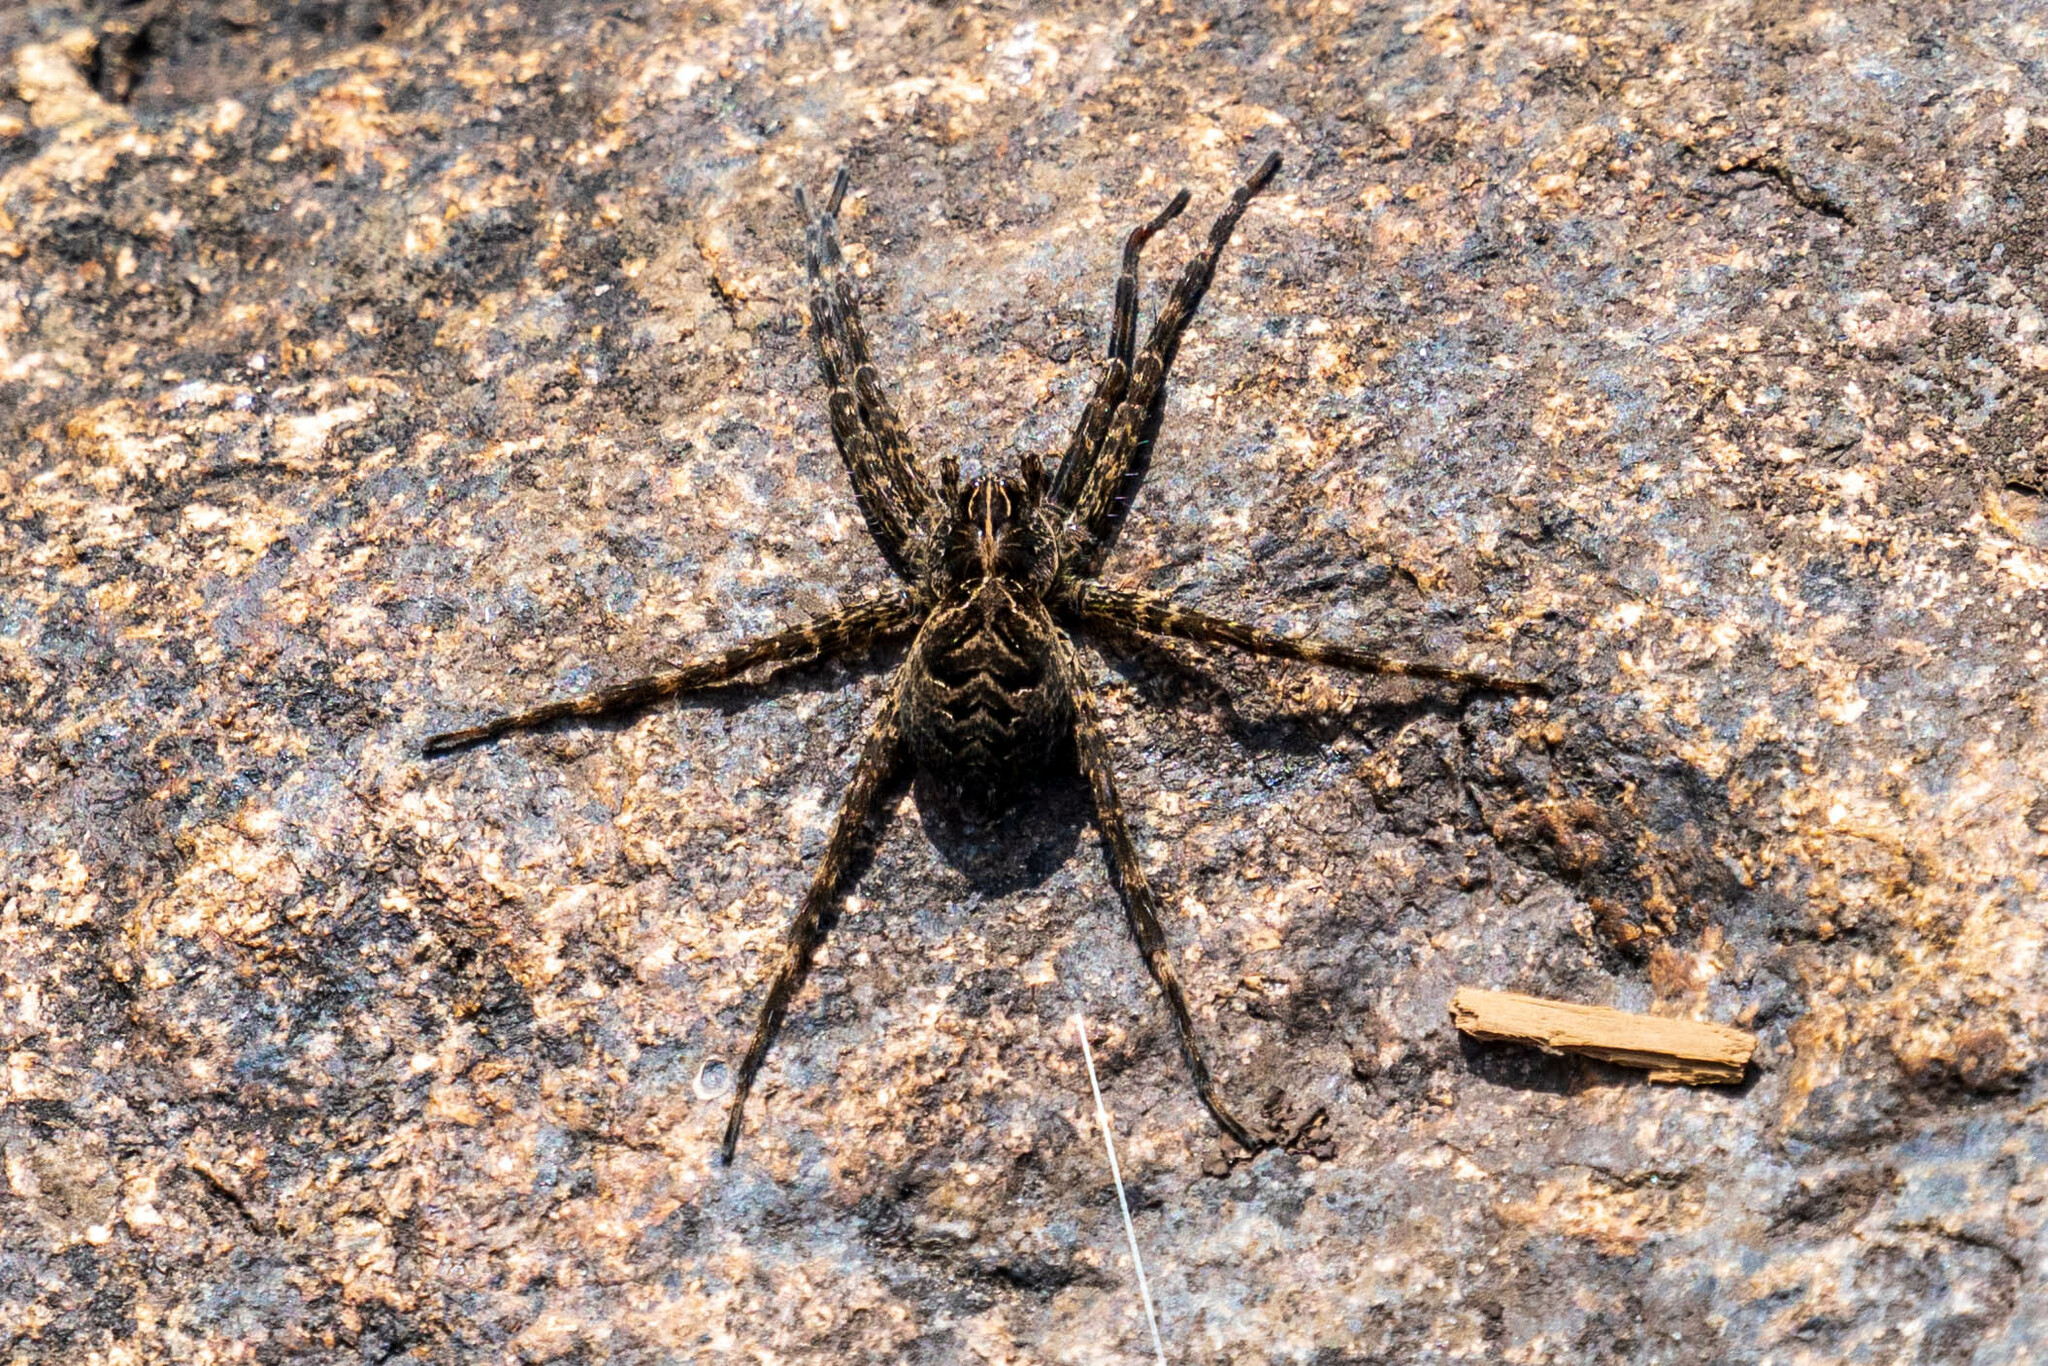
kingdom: Animalia
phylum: Arthropoda
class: Arachnida
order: Araneae
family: Pisauridae
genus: Dolomedes
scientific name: Dolomedes scriptus
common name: Striped fishing spider
